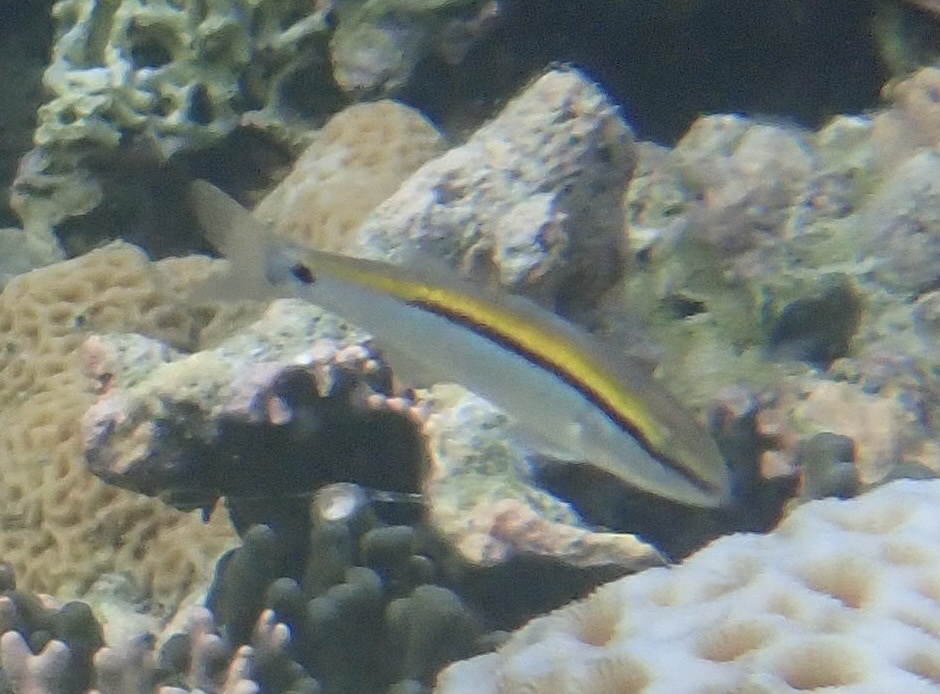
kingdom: Animalia
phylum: Chordata
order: Perciformes
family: Mullidae
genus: Parupeneus
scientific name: Parupeneus barberinus
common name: Dash-and-dot goatfish
